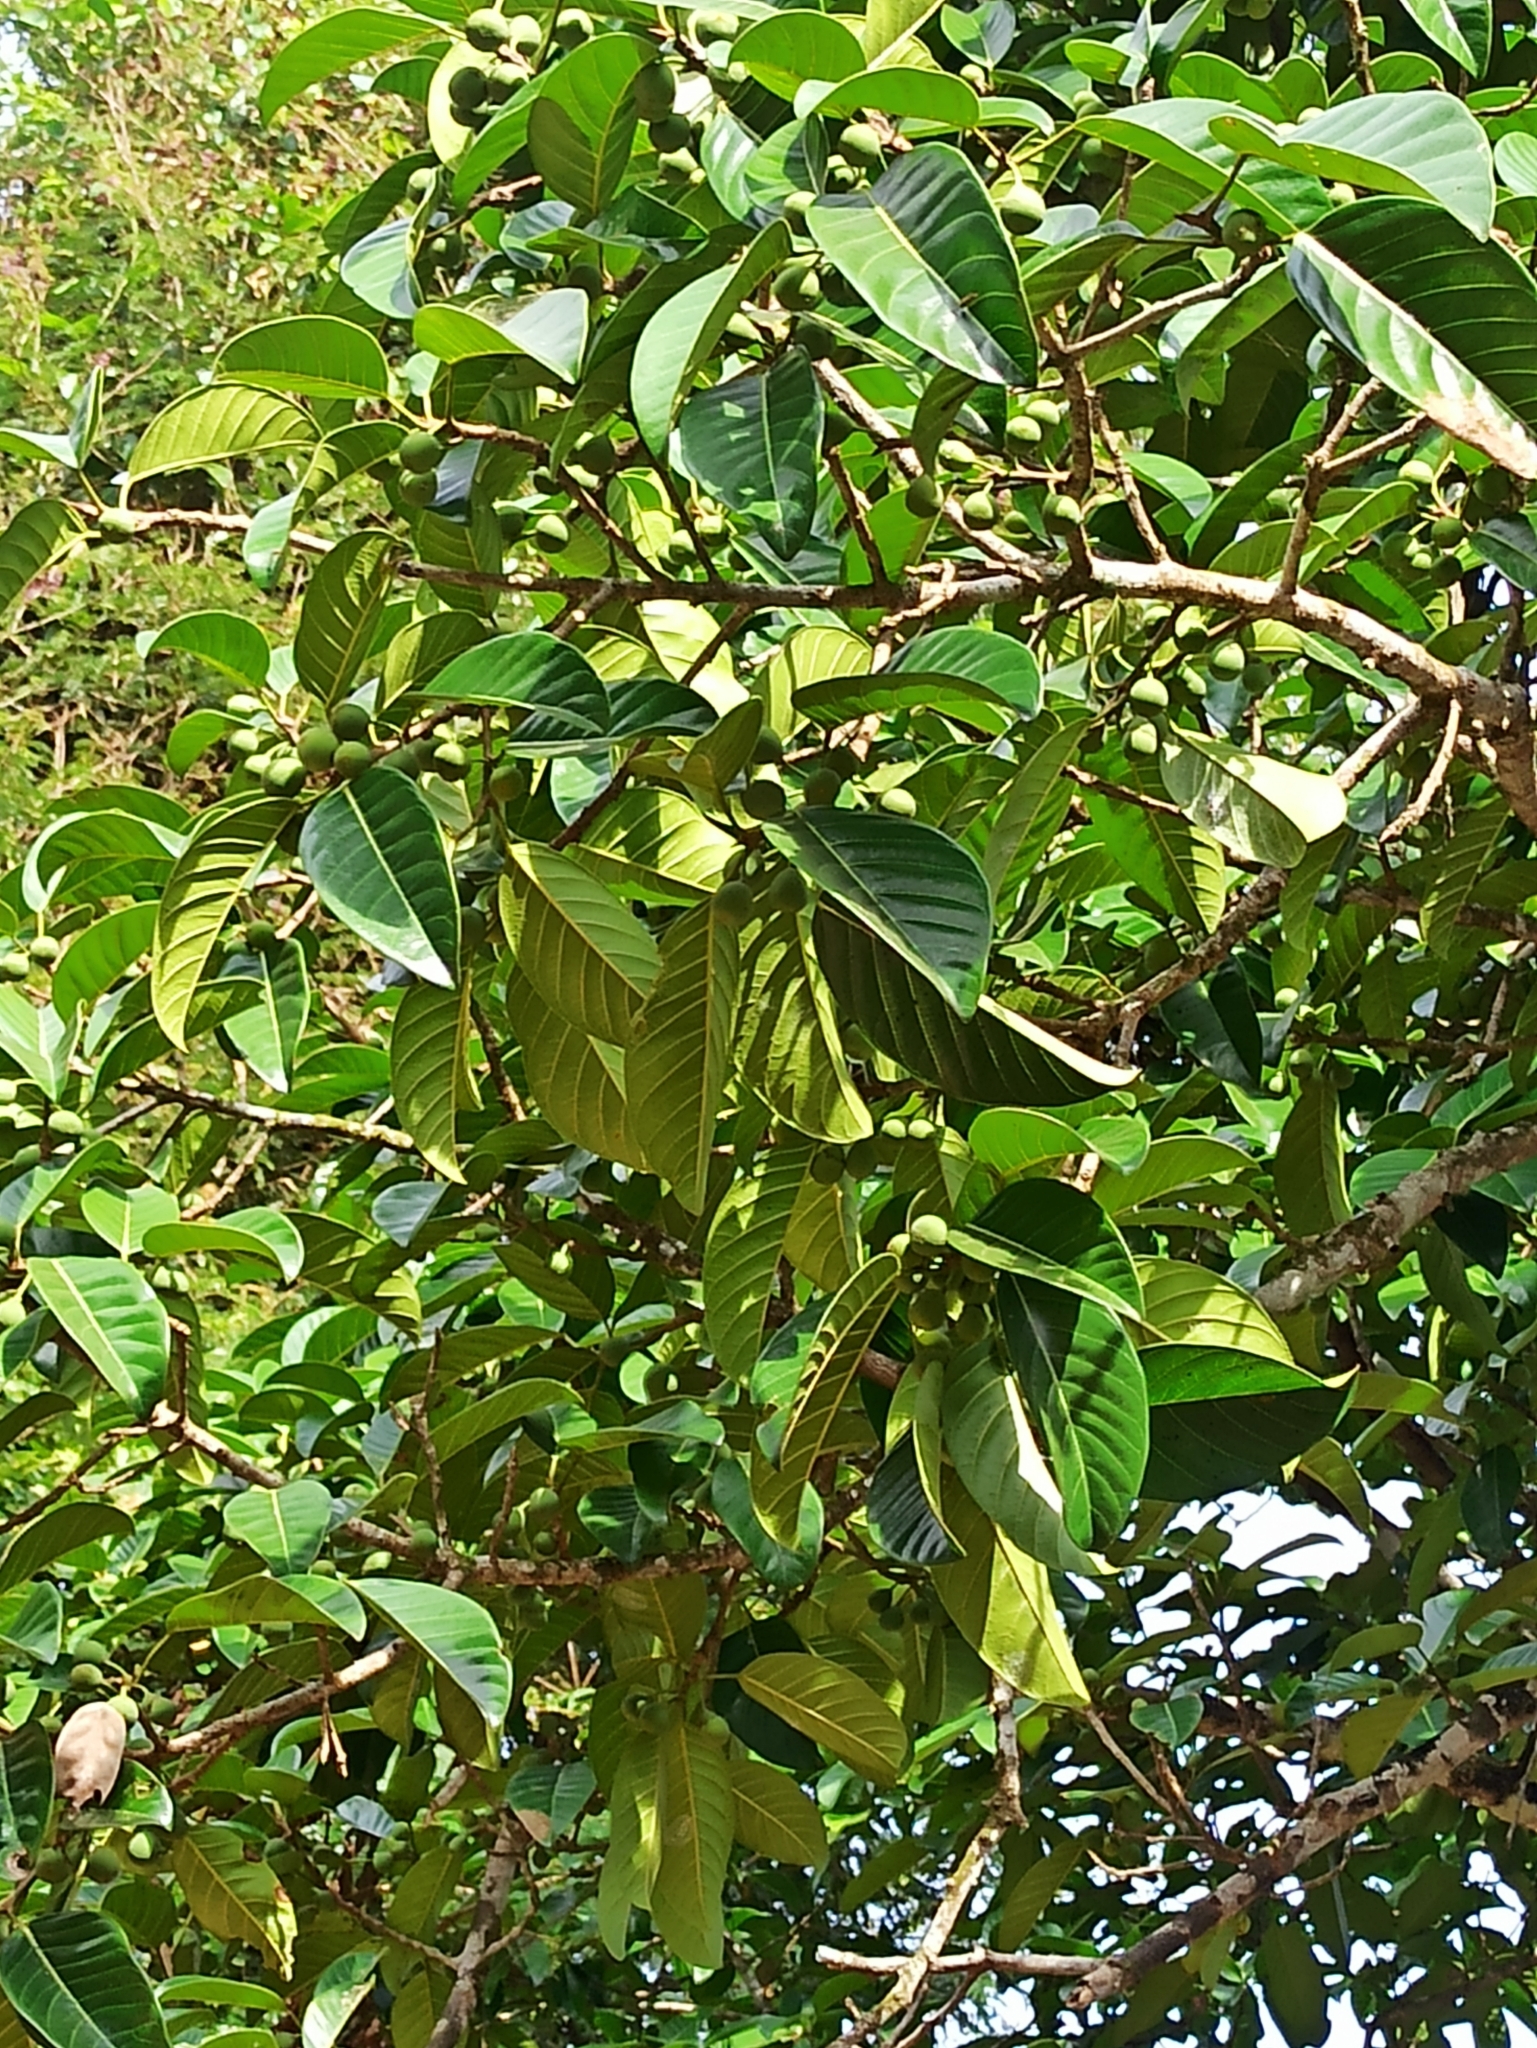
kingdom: Plantae
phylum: Tracheophyta
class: Magnoliopsida
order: Rosales
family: Moraceae
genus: Ficus
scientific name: Ficus callosa
